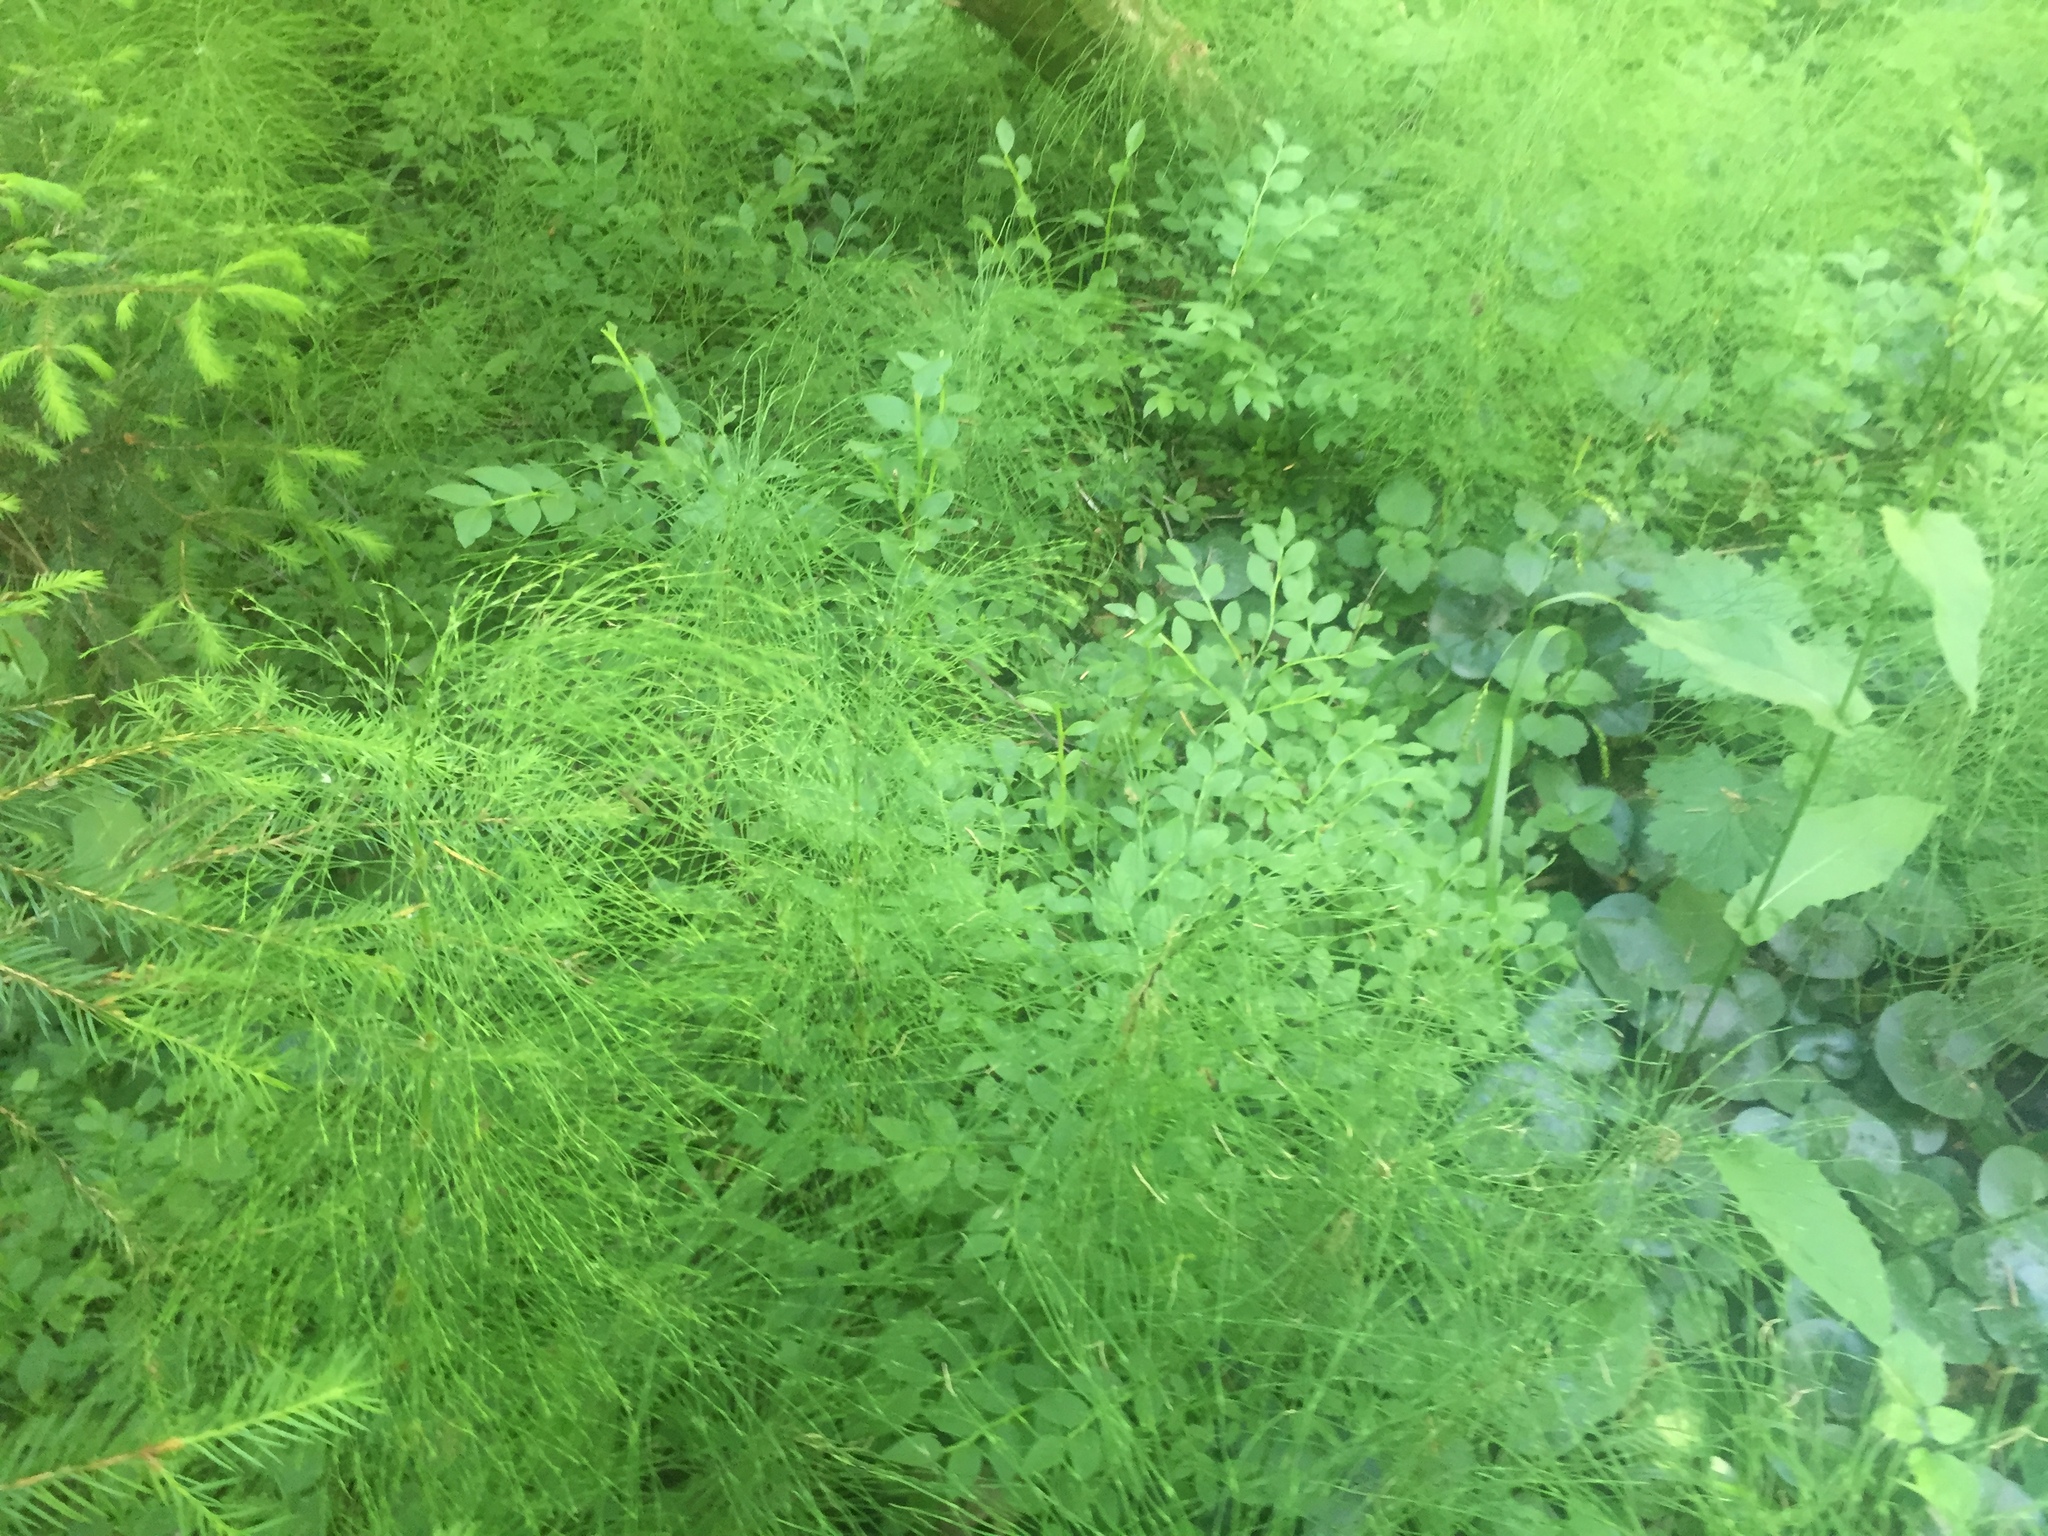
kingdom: Plantae
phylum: Tracheophyta
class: Magnoliopsida
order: Asterales
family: Asteraceae
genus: Crepis
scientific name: Crepis paludosa
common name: Marsh hawk's-beard
